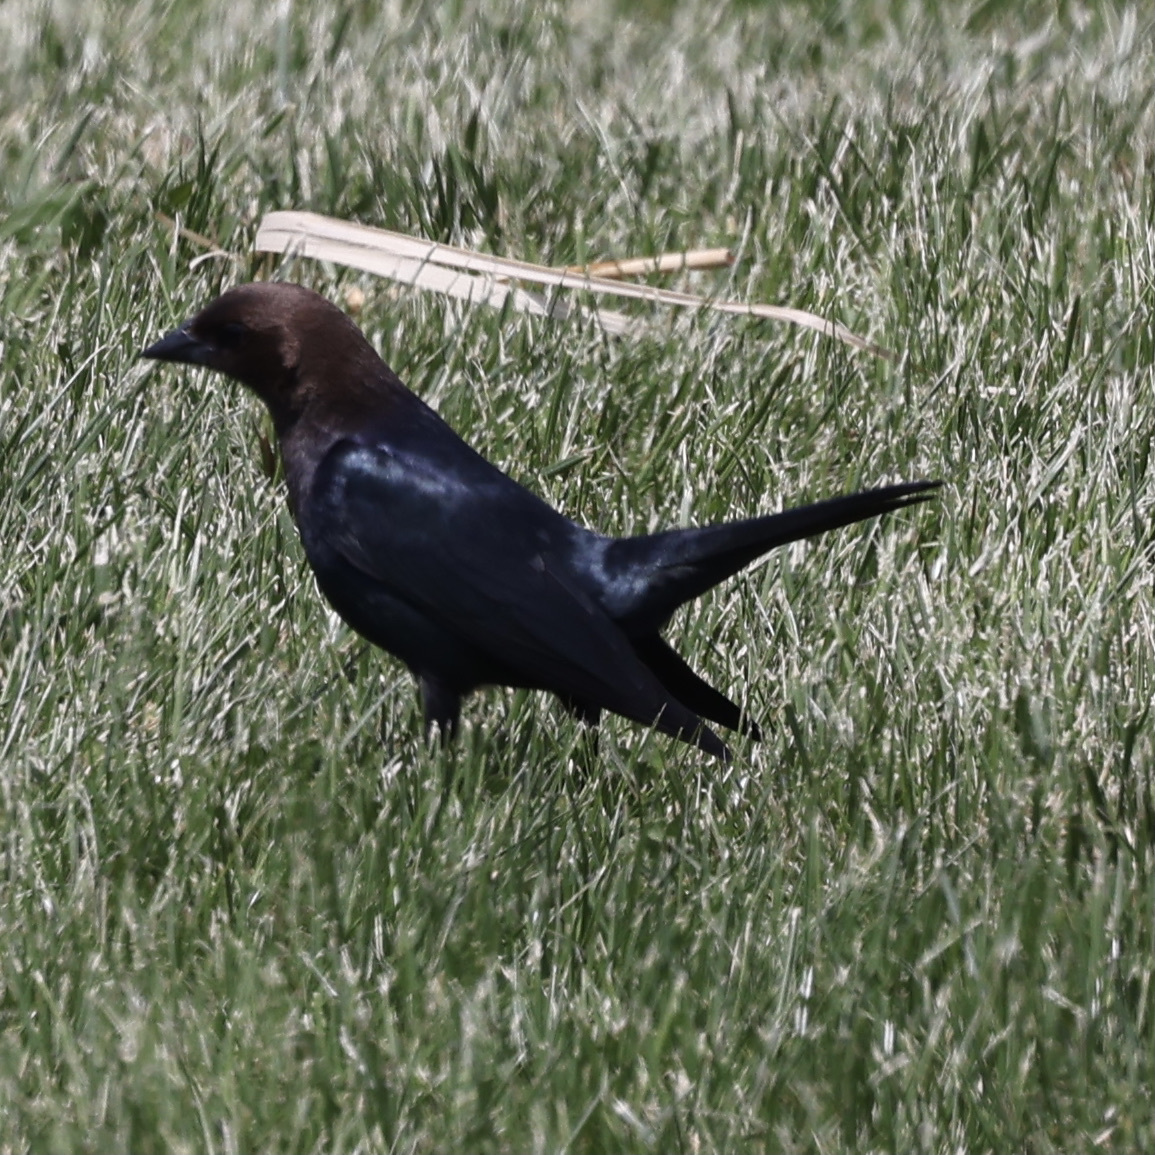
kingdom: Animalia
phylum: Chordata
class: Aves
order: Passeriformes
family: Icteridae
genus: Molothrus
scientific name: Molothrus ater
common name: Brown-headed cowbird
